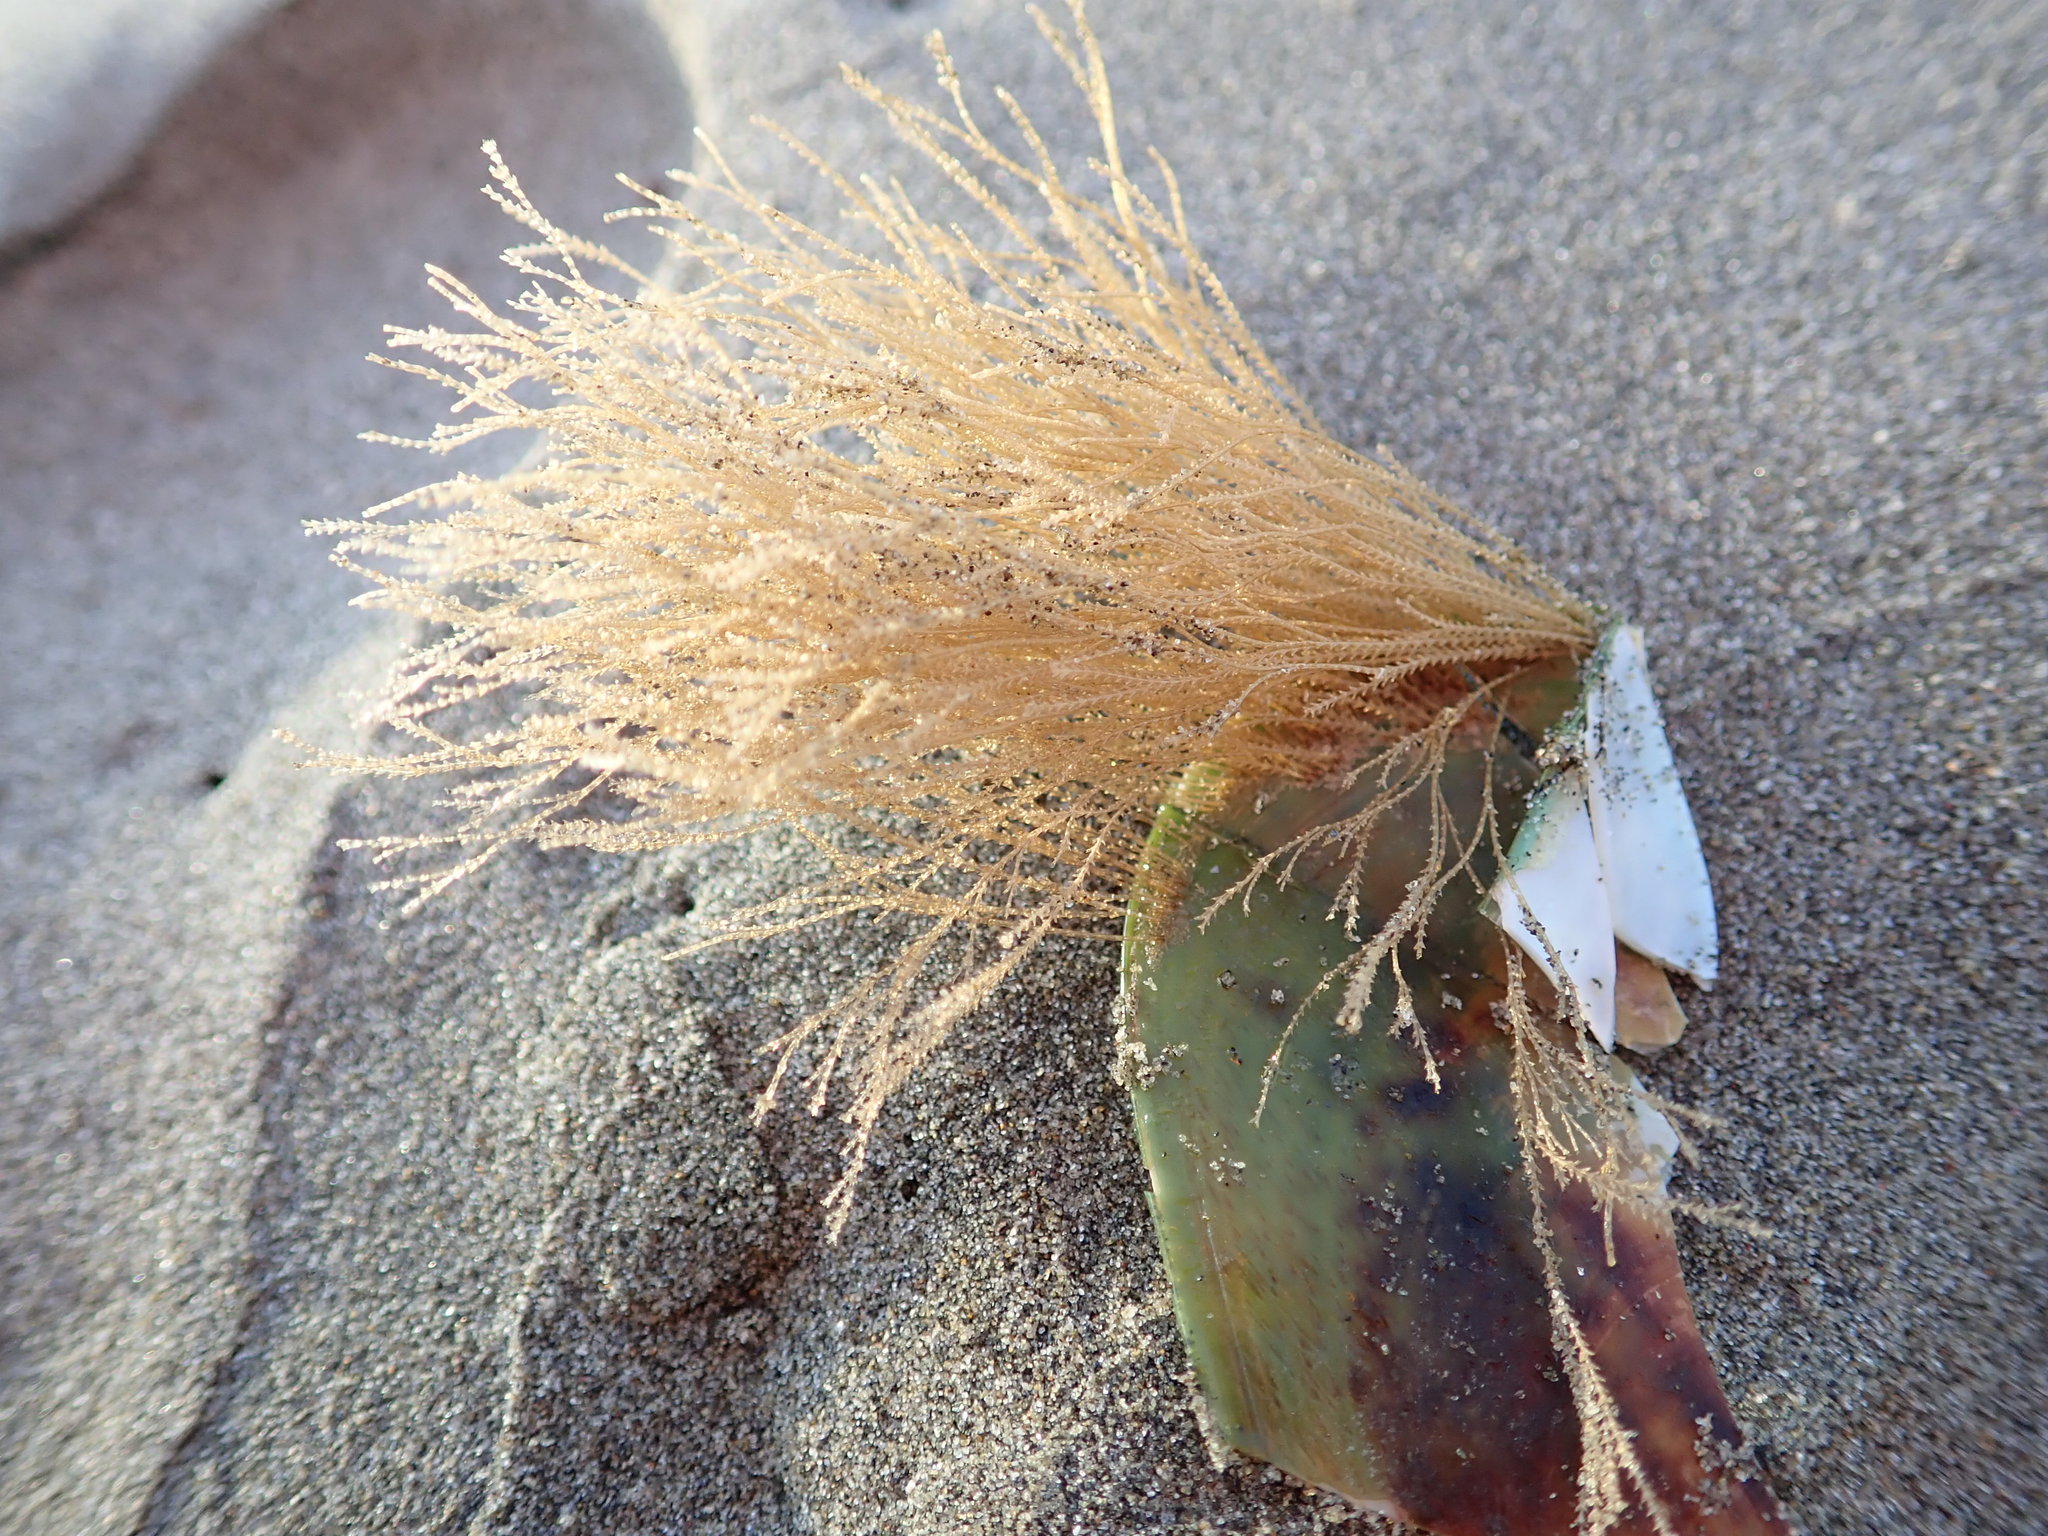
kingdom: Animalia
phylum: Cnidaria
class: Hydrozoa
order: Leptothecata
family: Sertulariidae
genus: Amphisbetia
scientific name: Amphisbetia bispinosa
